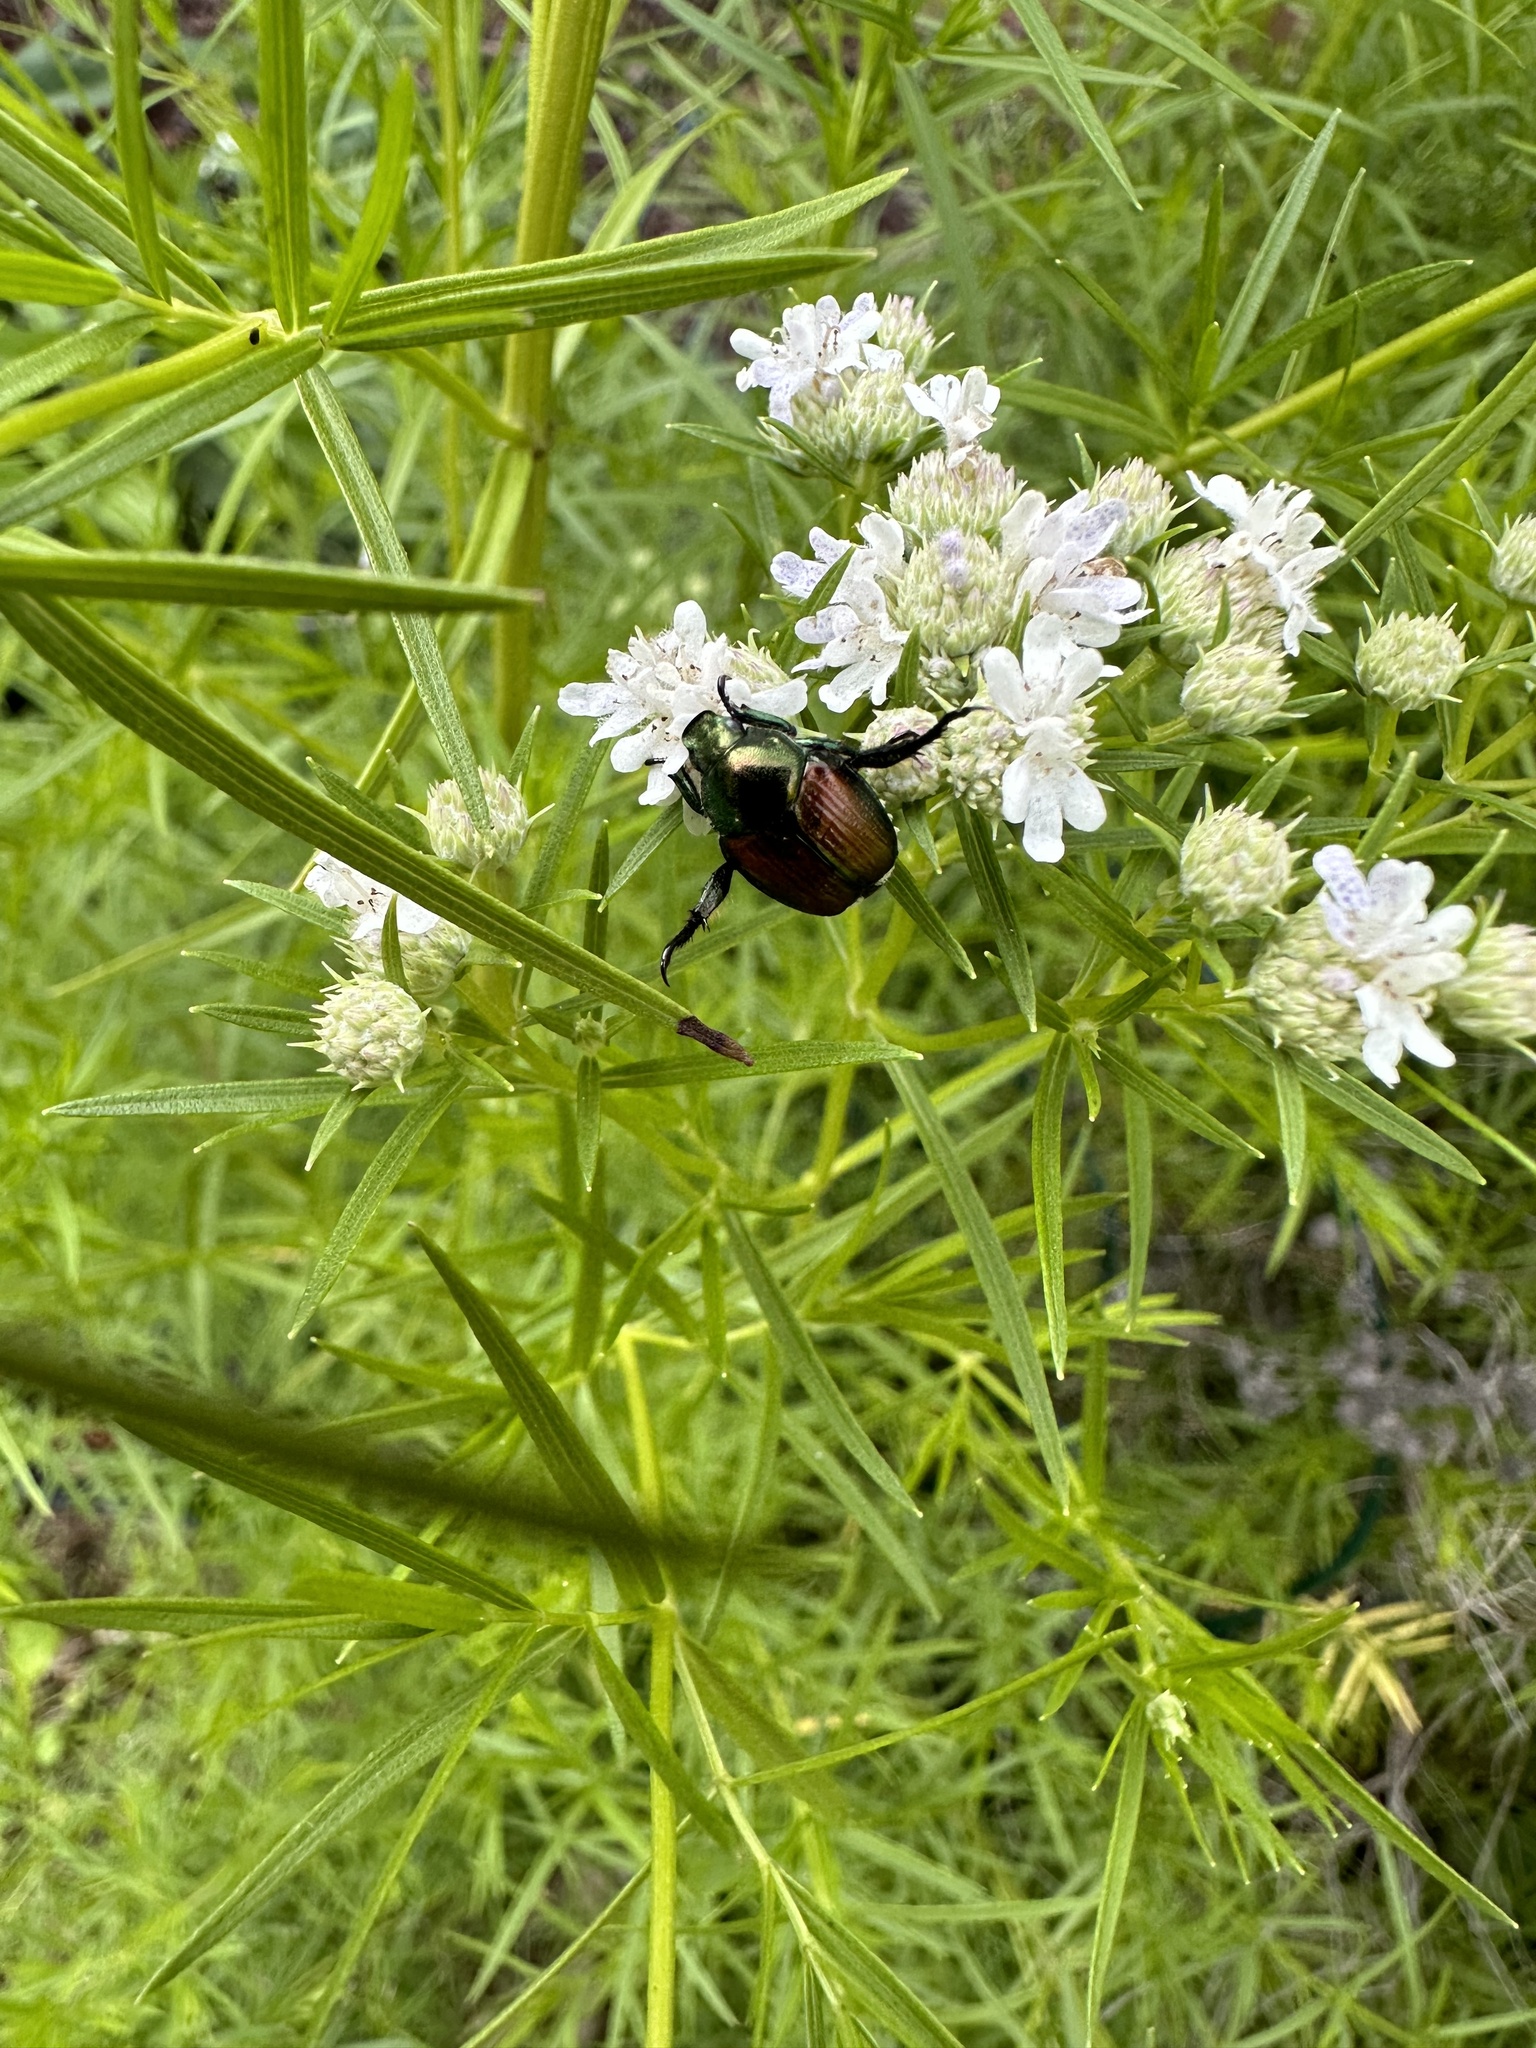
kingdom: Animalia
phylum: Arthropoda
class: Insecta
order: Coleoptera
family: Scarabaeidae
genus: Popillia
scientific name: Popillia japonica
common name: Japanese beetle
